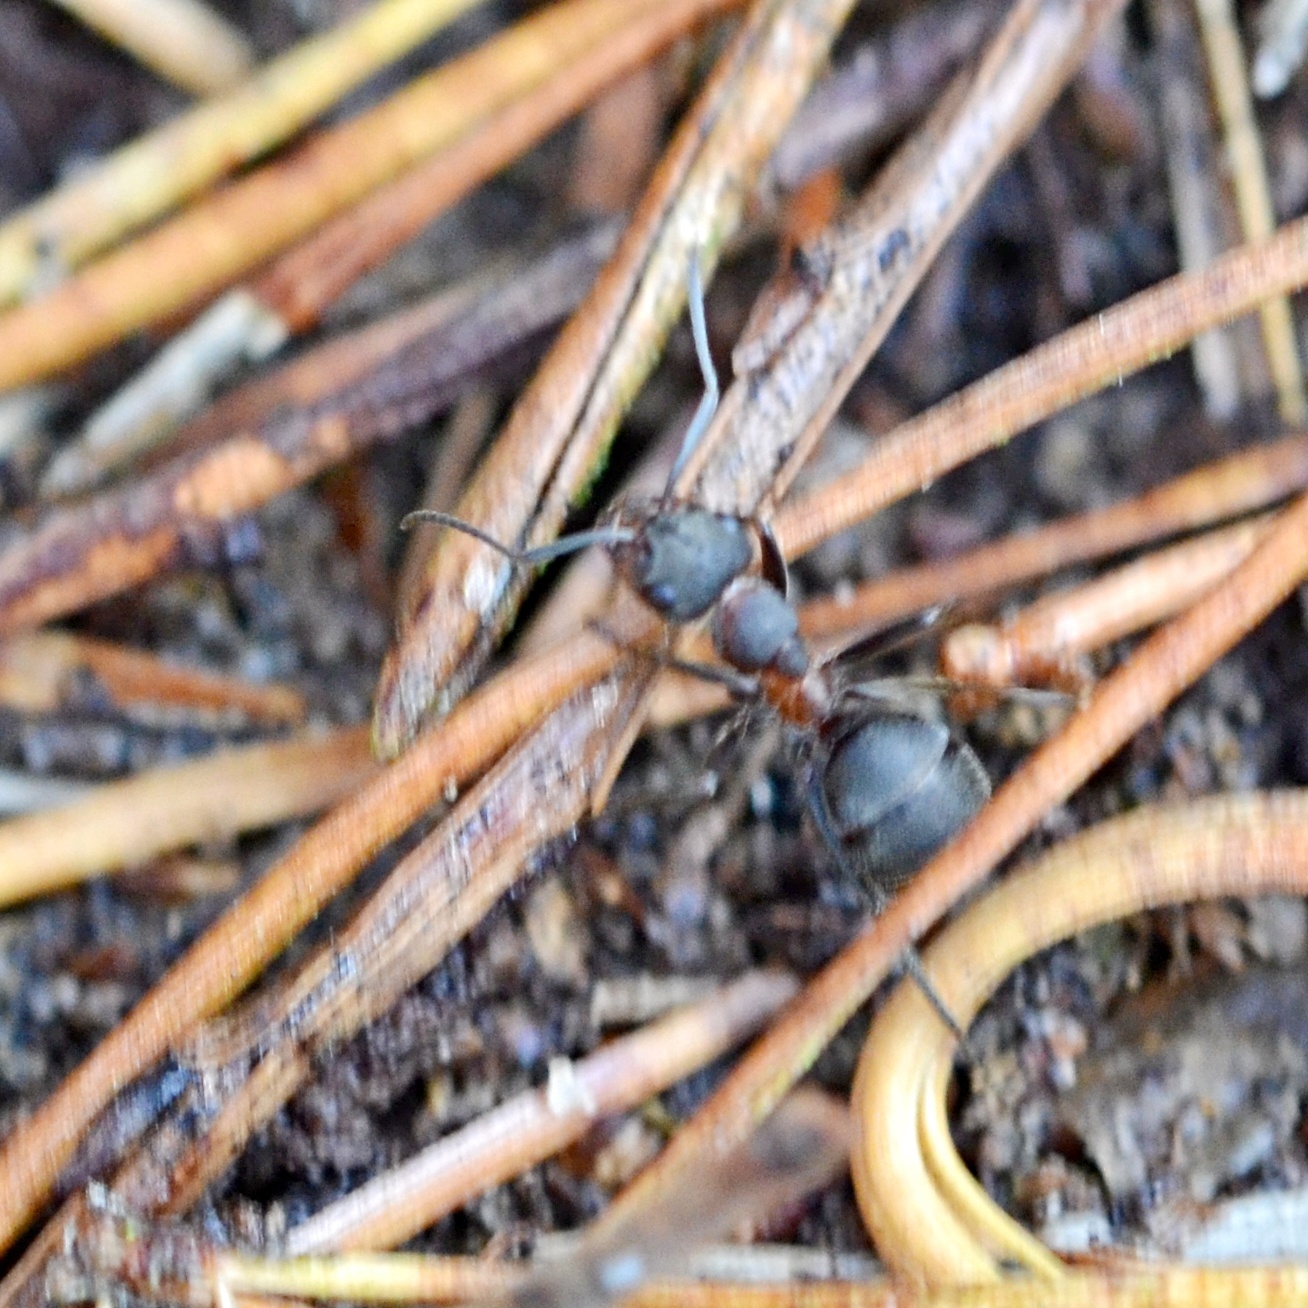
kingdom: Animalia
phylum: Arthropoda
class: Insecta
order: Hymenoptera
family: Formicidae
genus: Formica
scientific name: Formica pratensis
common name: European red wood ant
